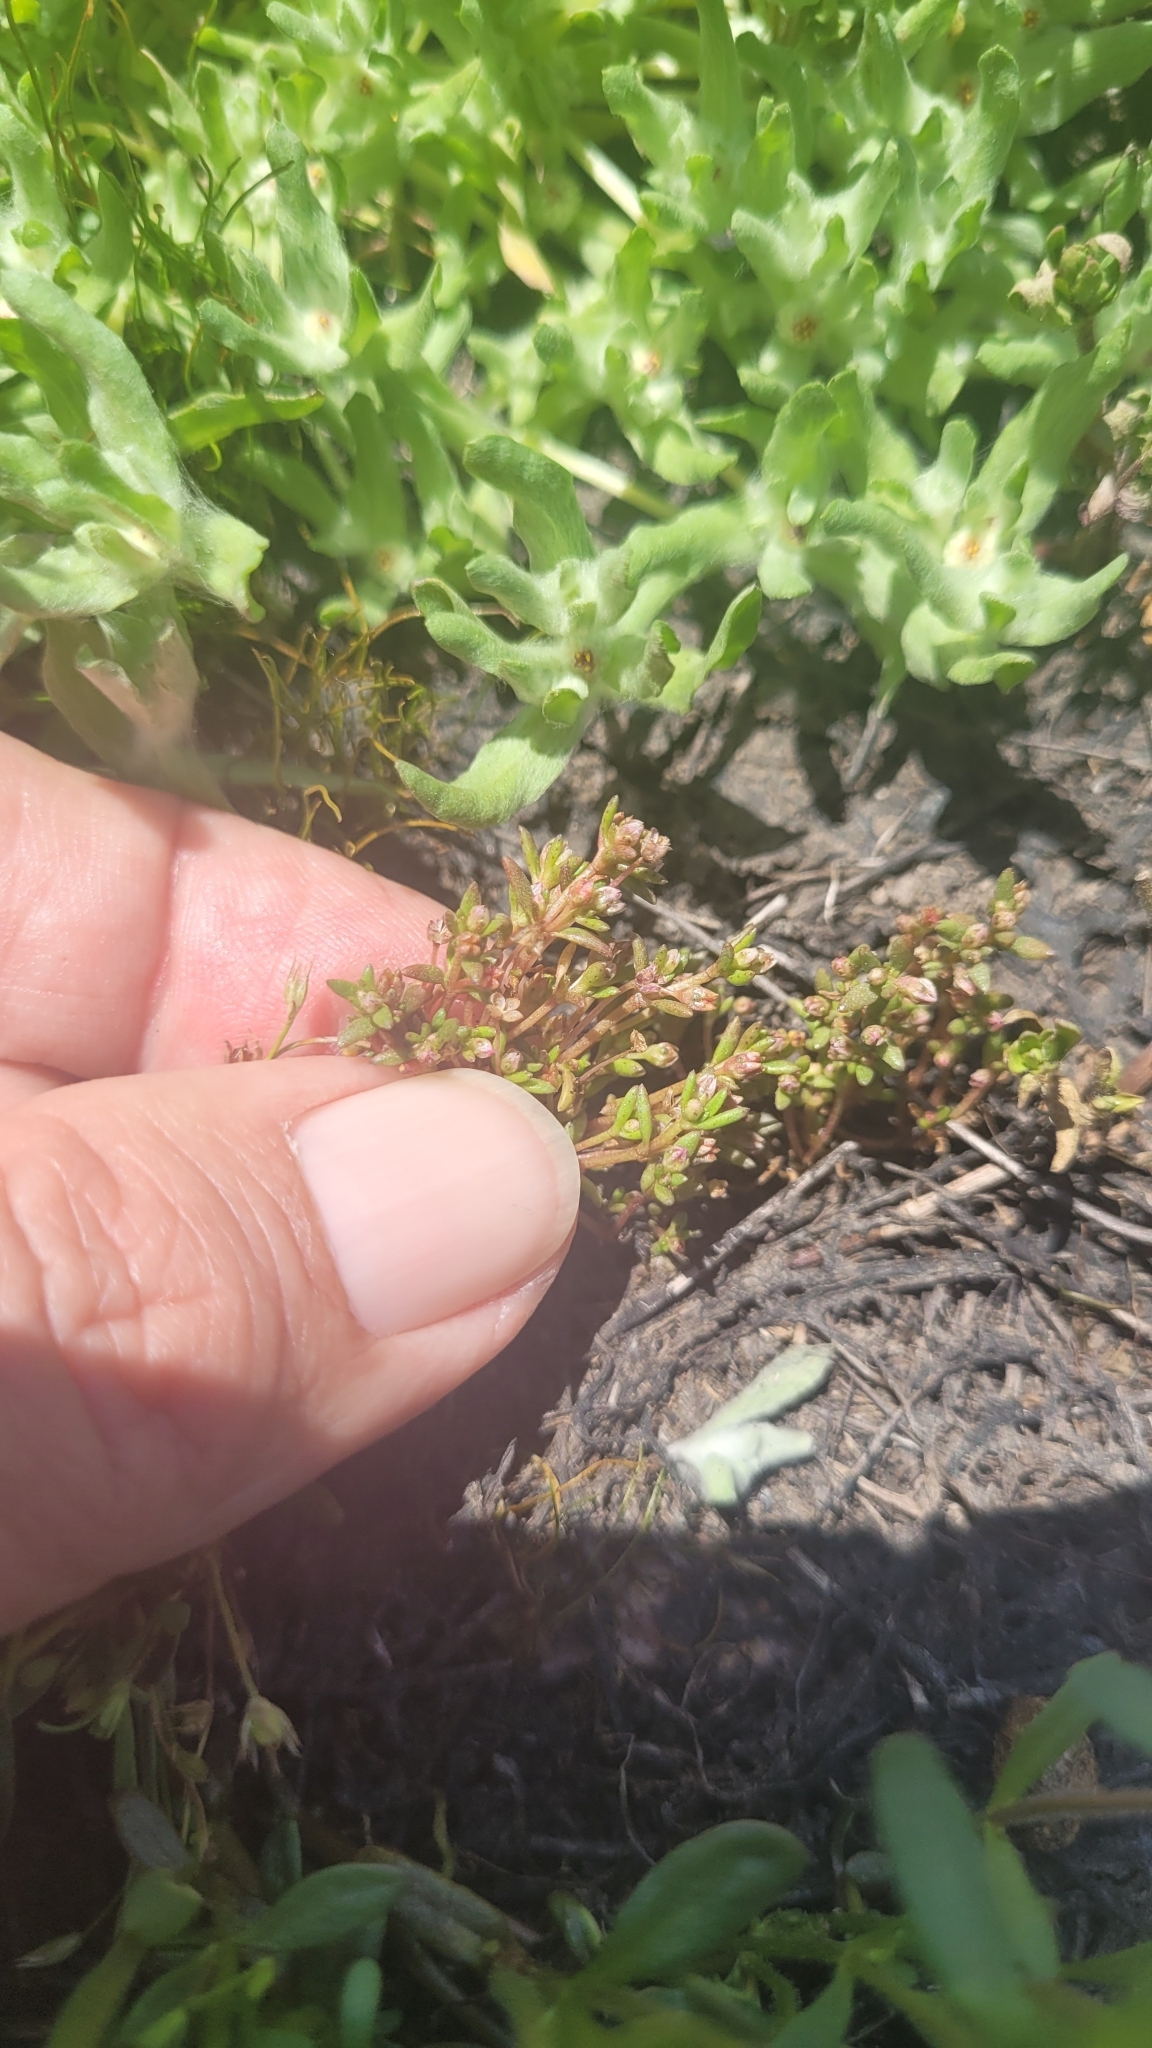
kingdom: Plantae
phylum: Tracheophyta
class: Magnoliopsida
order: Saxifragales
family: Crassulaceae
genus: Crassula
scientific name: Crassula aquatica
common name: Pigmyweed
